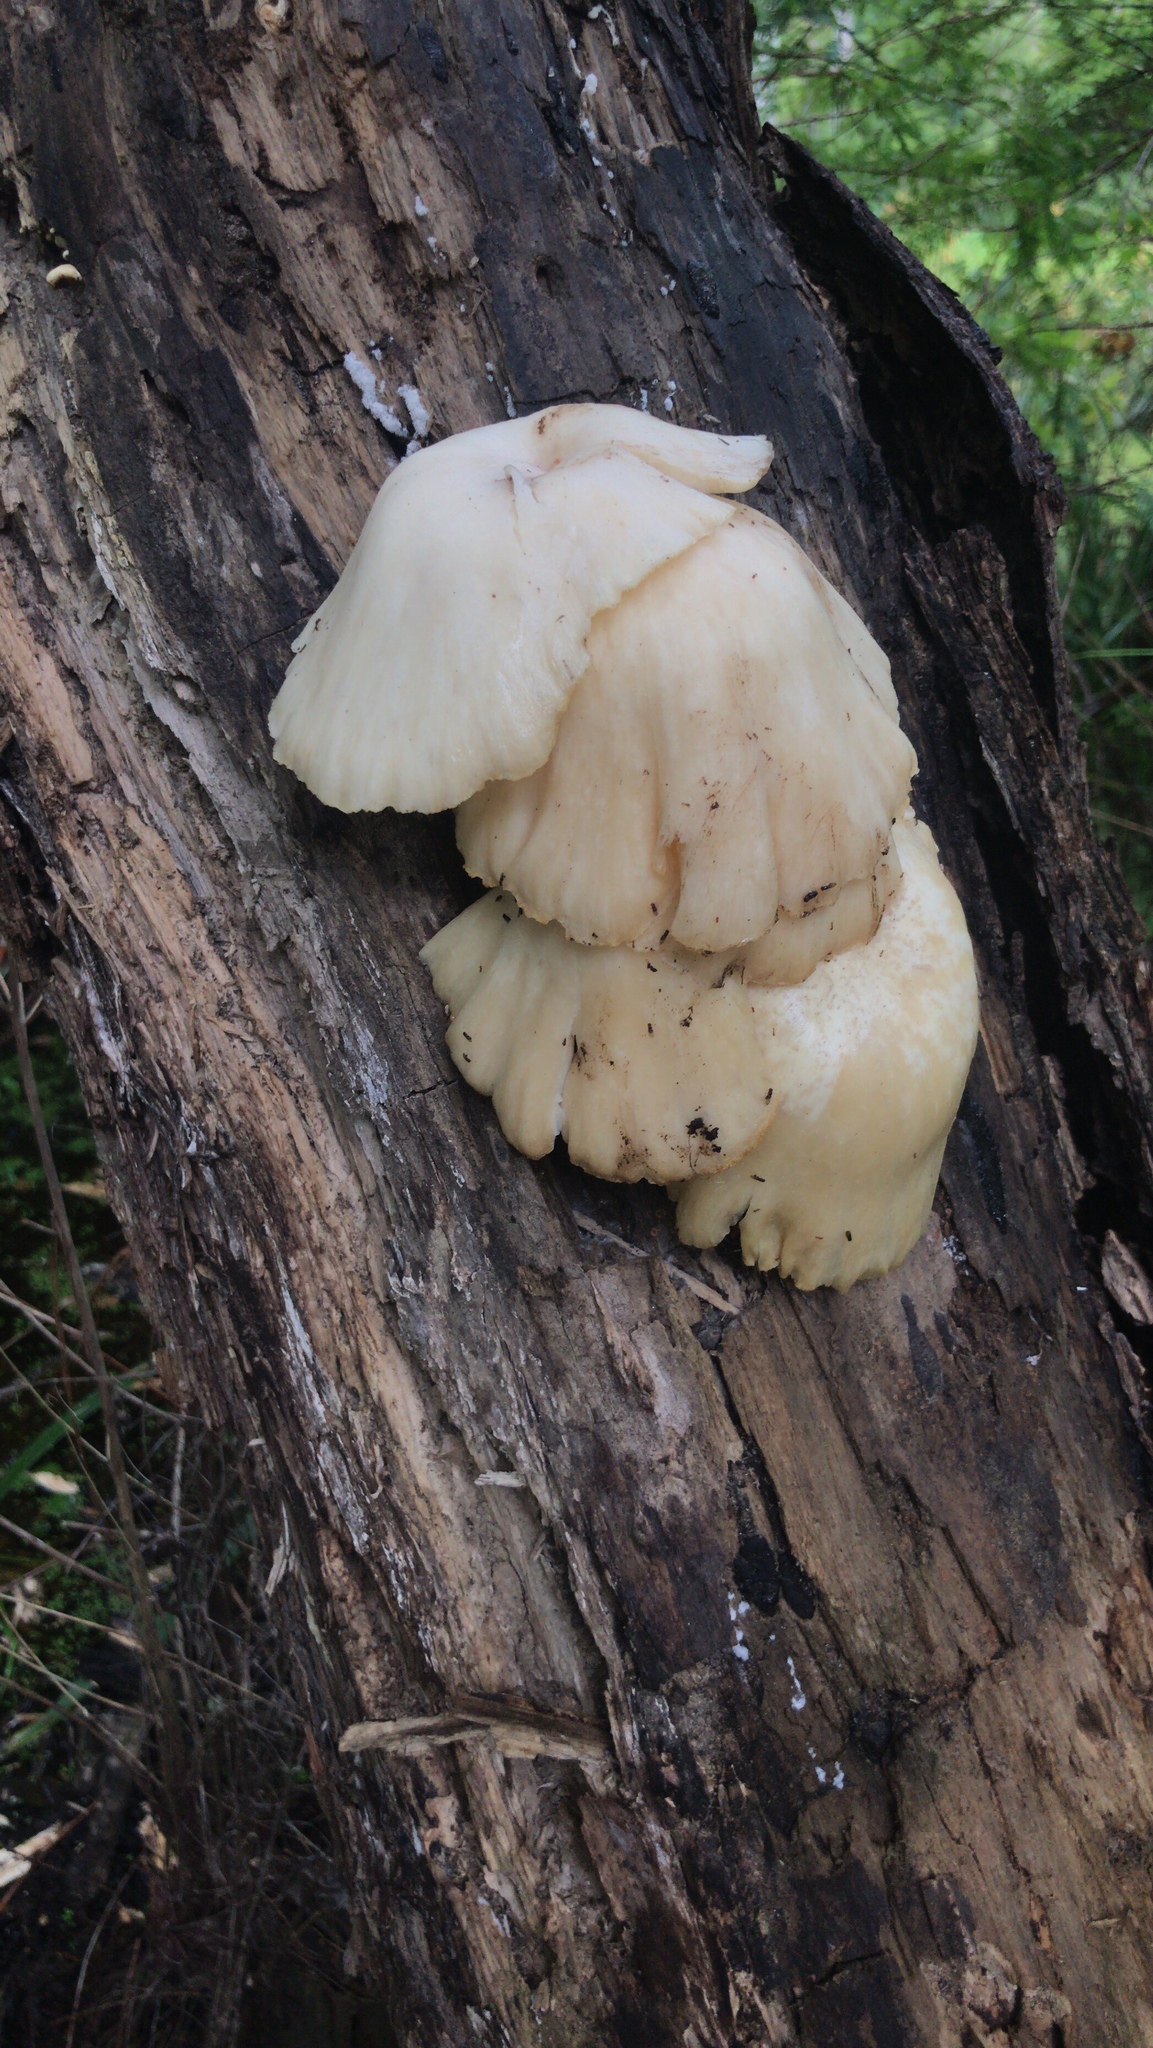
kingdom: Fungi
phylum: Basidiomycota
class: Agaricomycetes
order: Agaricales
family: Pleurotaceae
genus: Pleurotus
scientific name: Pleurotus ostreatus
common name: Oyster mushroom
